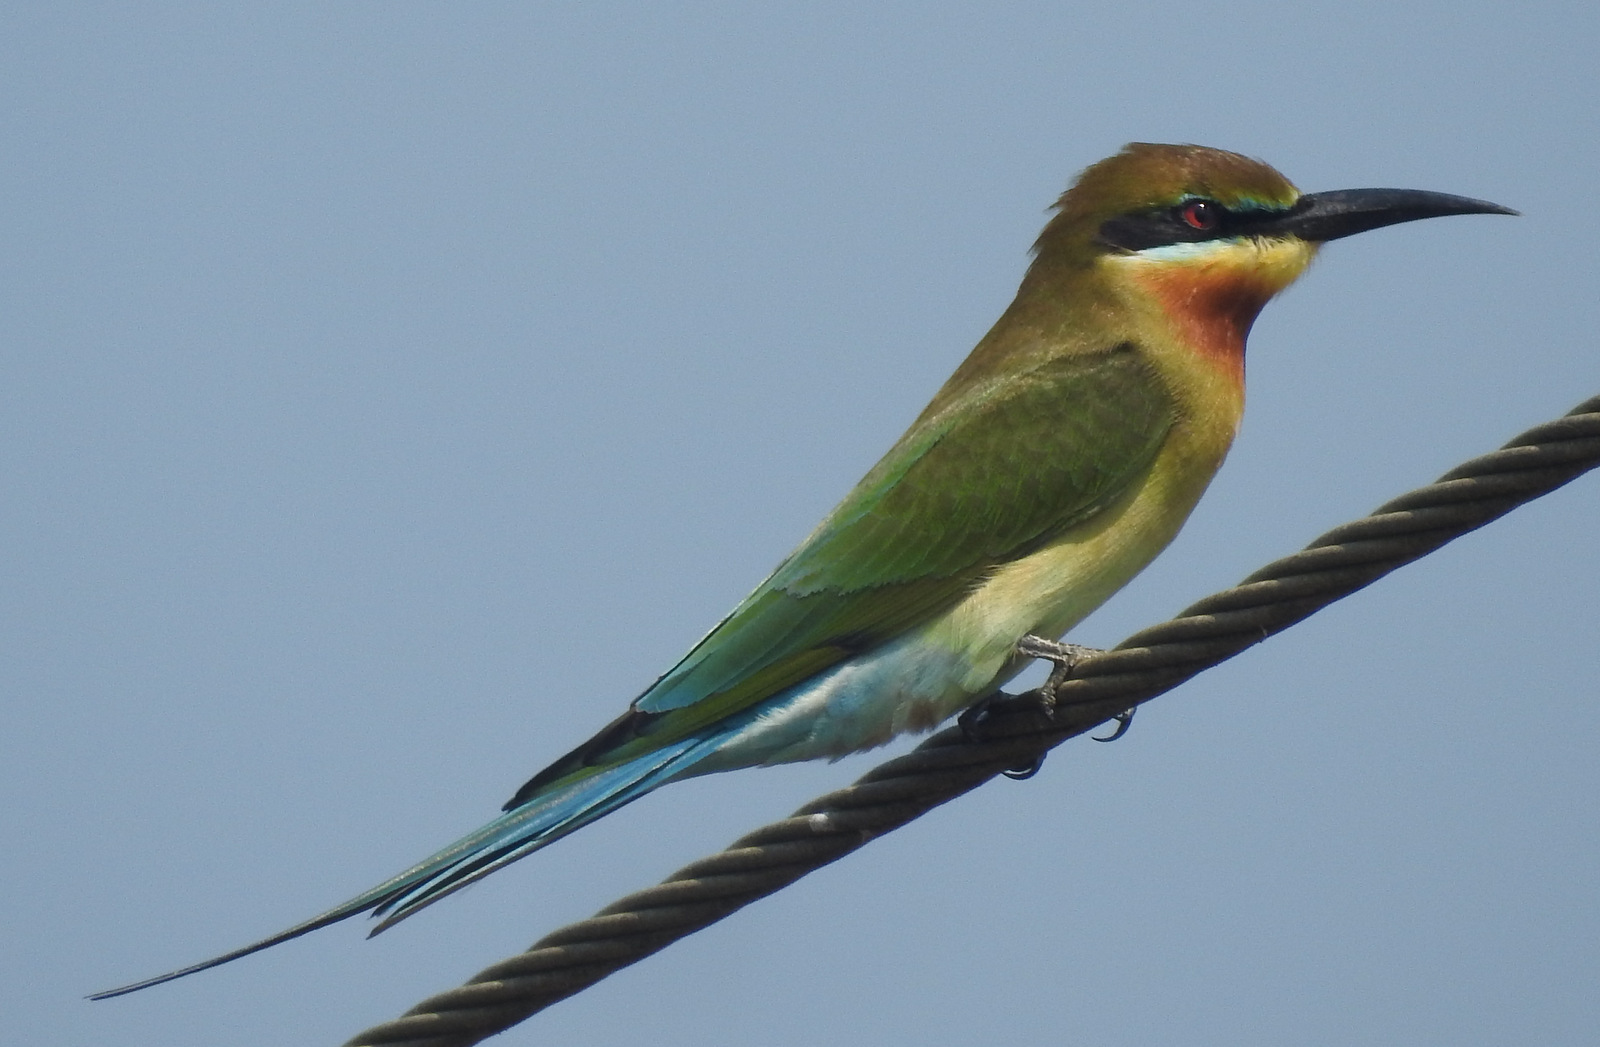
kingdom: Animalia
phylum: Chordata
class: Aves
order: Coraciiformes
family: Meropidae
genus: Merops
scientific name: Merops philippinus
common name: Blue-tailed bee-eater
